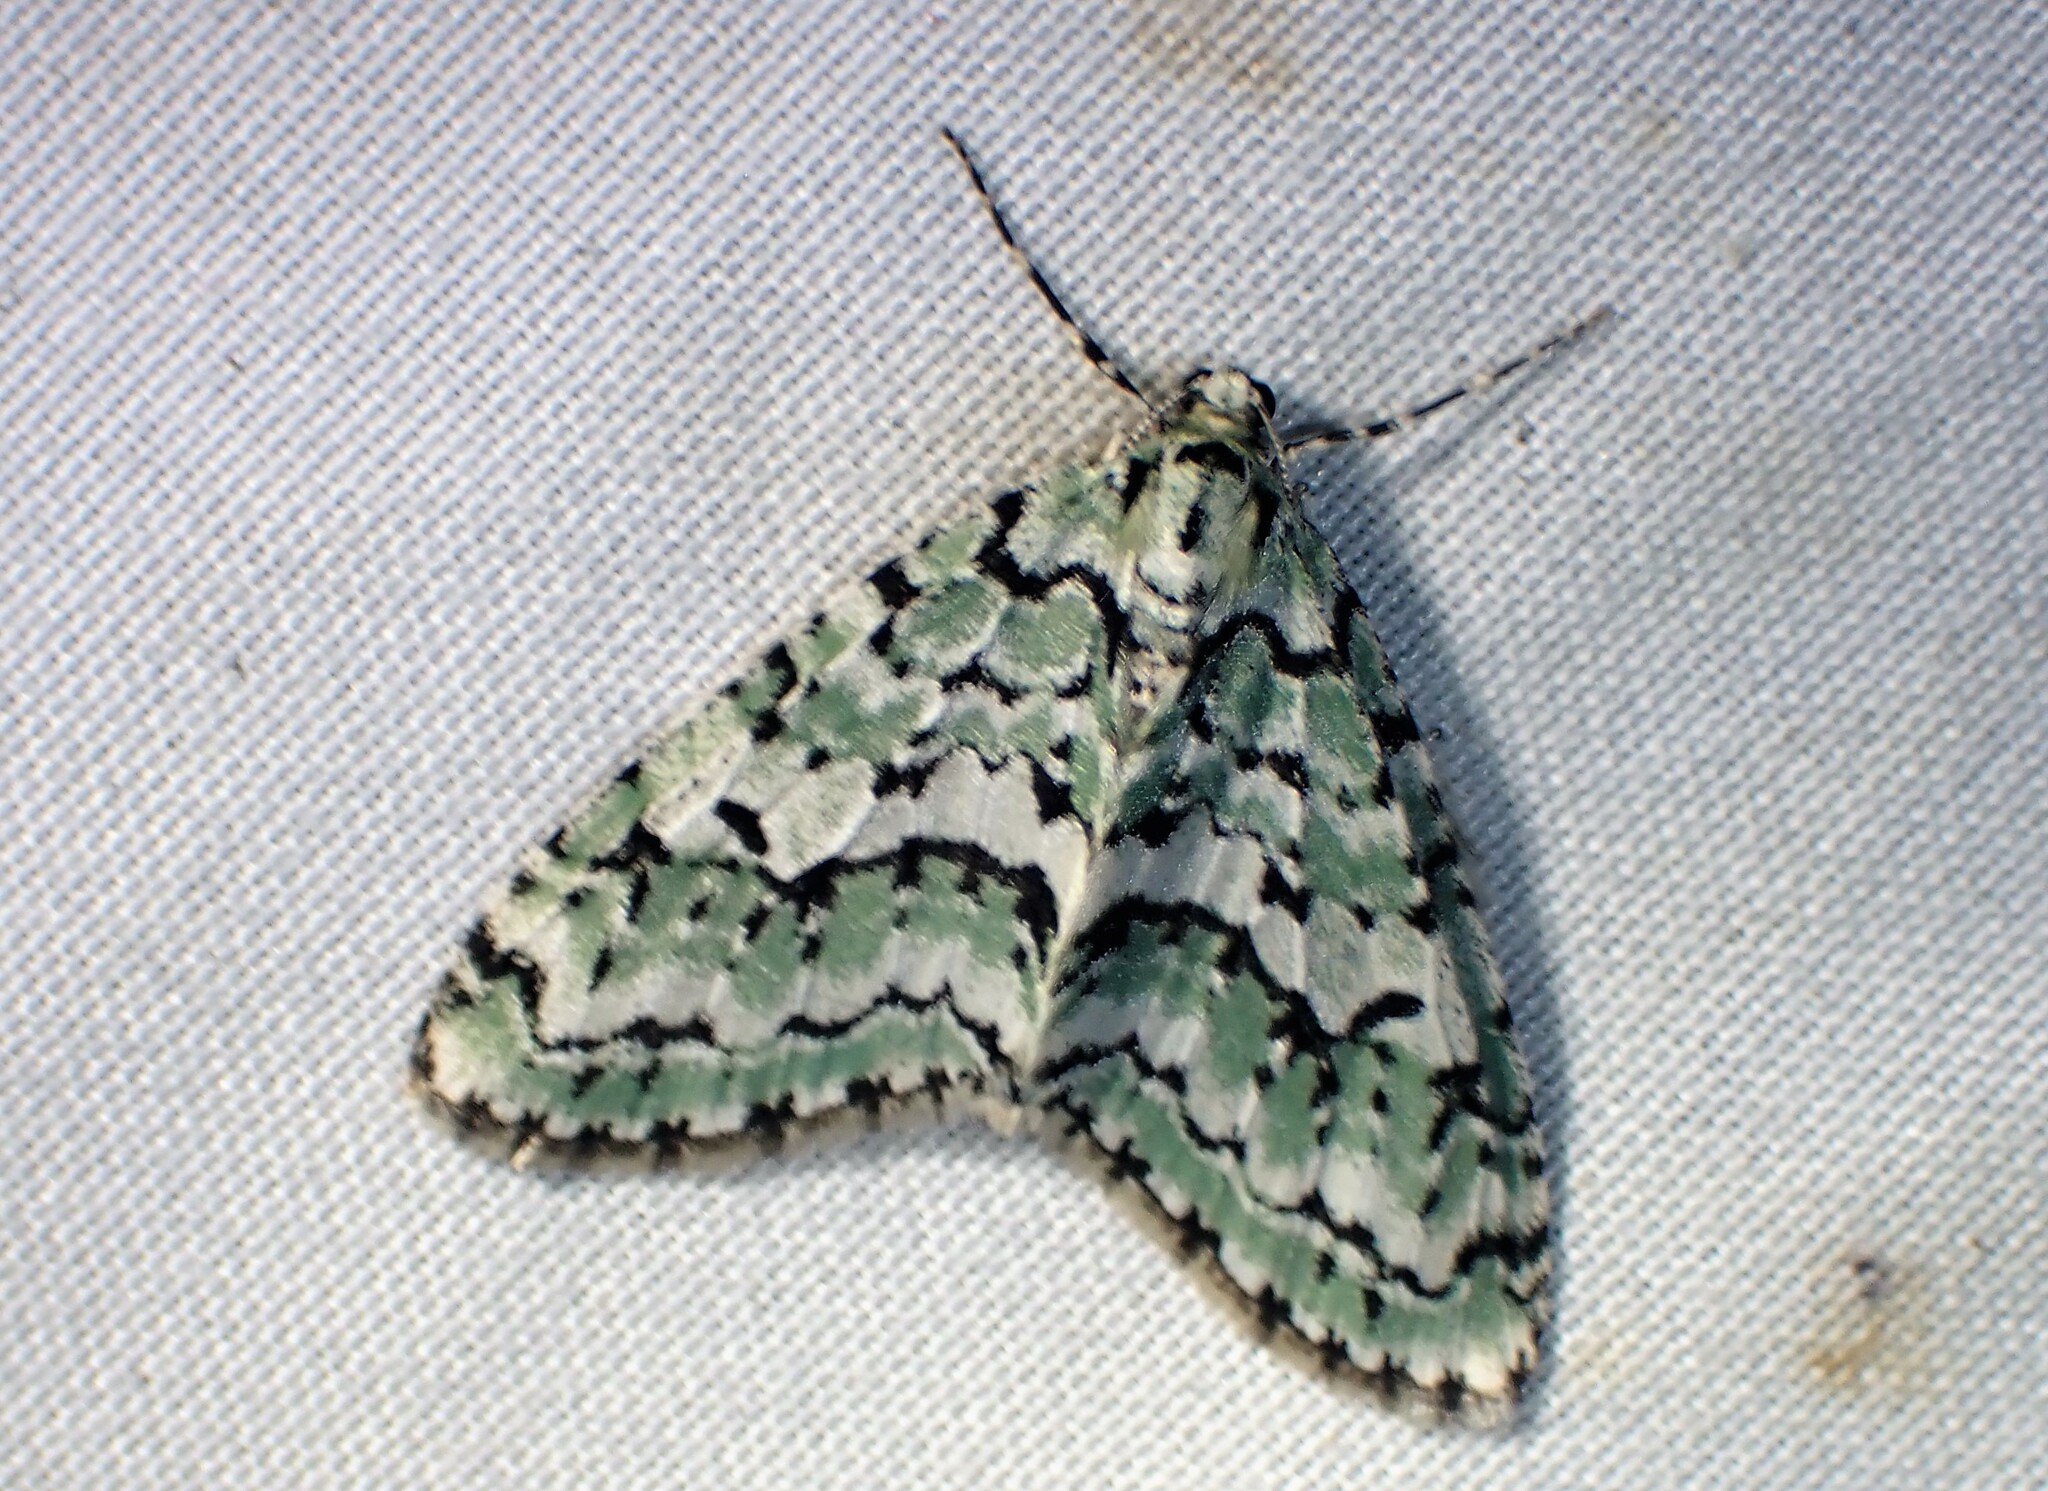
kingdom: Animalia
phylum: Arthropoda
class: Insecta
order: Lepidoptera
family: Geometridae
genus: Cladara
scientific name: Cladara atroliturata
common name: Scribbler
